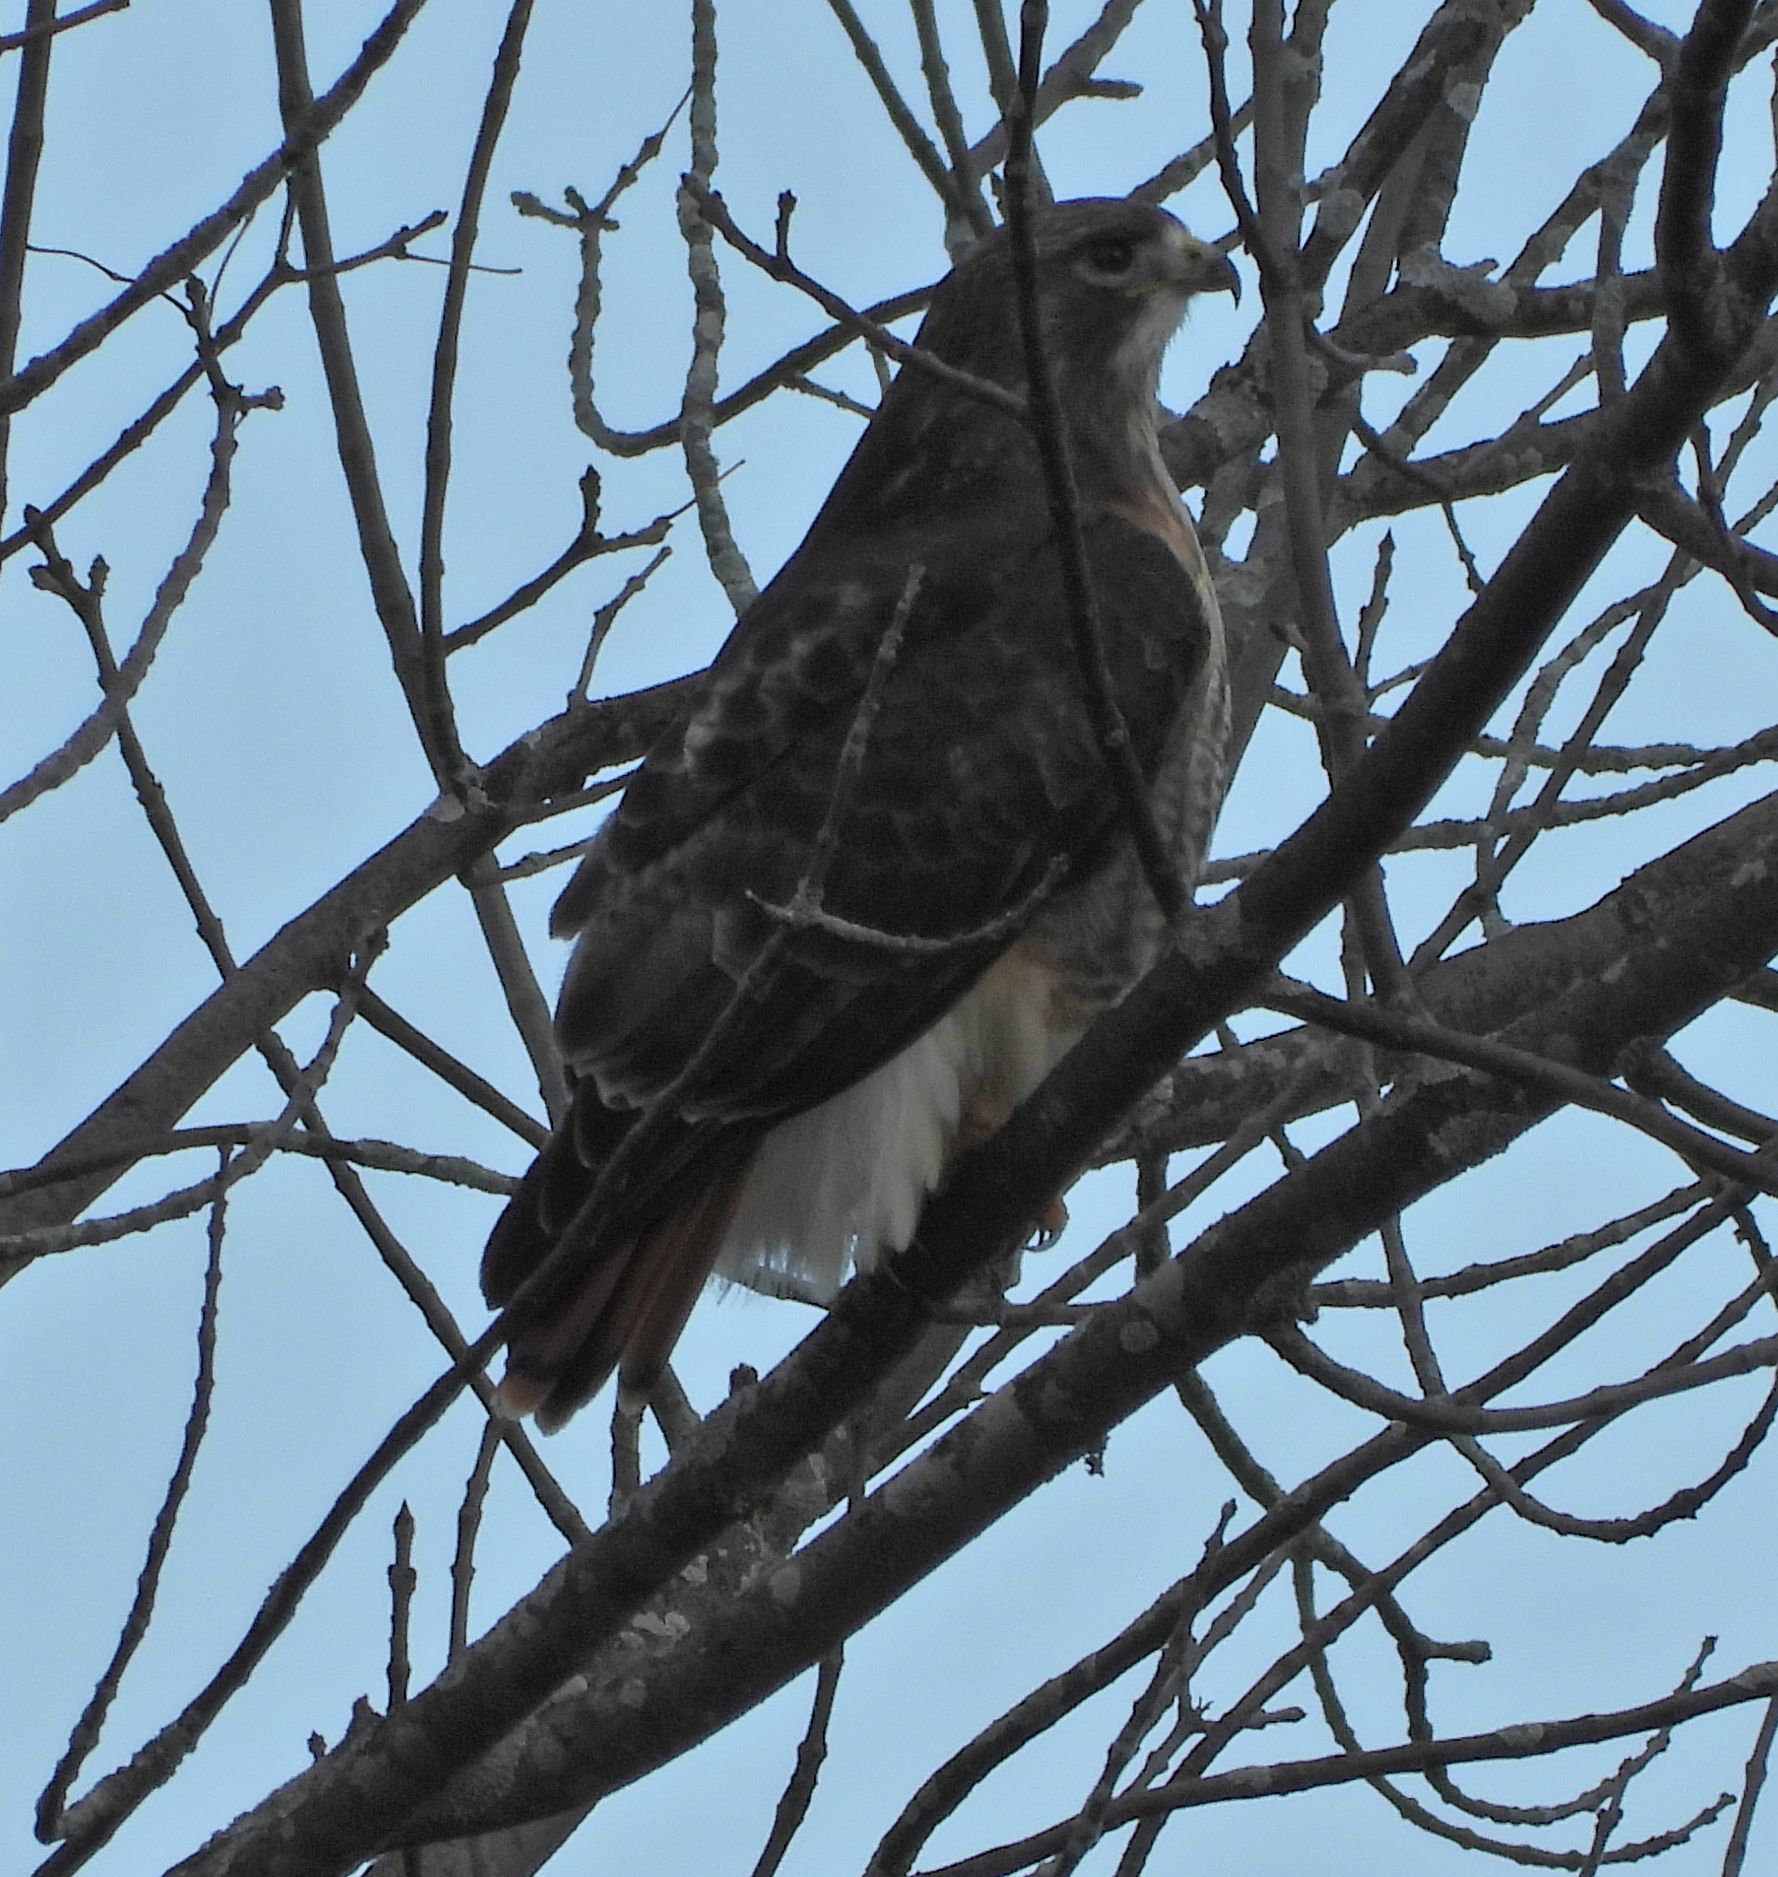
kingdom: Animalia
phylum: Chordata
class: Aves
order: Accipitriformes
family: Accipitridae
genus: Buteo
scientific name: Buteo jamaicensis
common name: Red-tailed hawk
